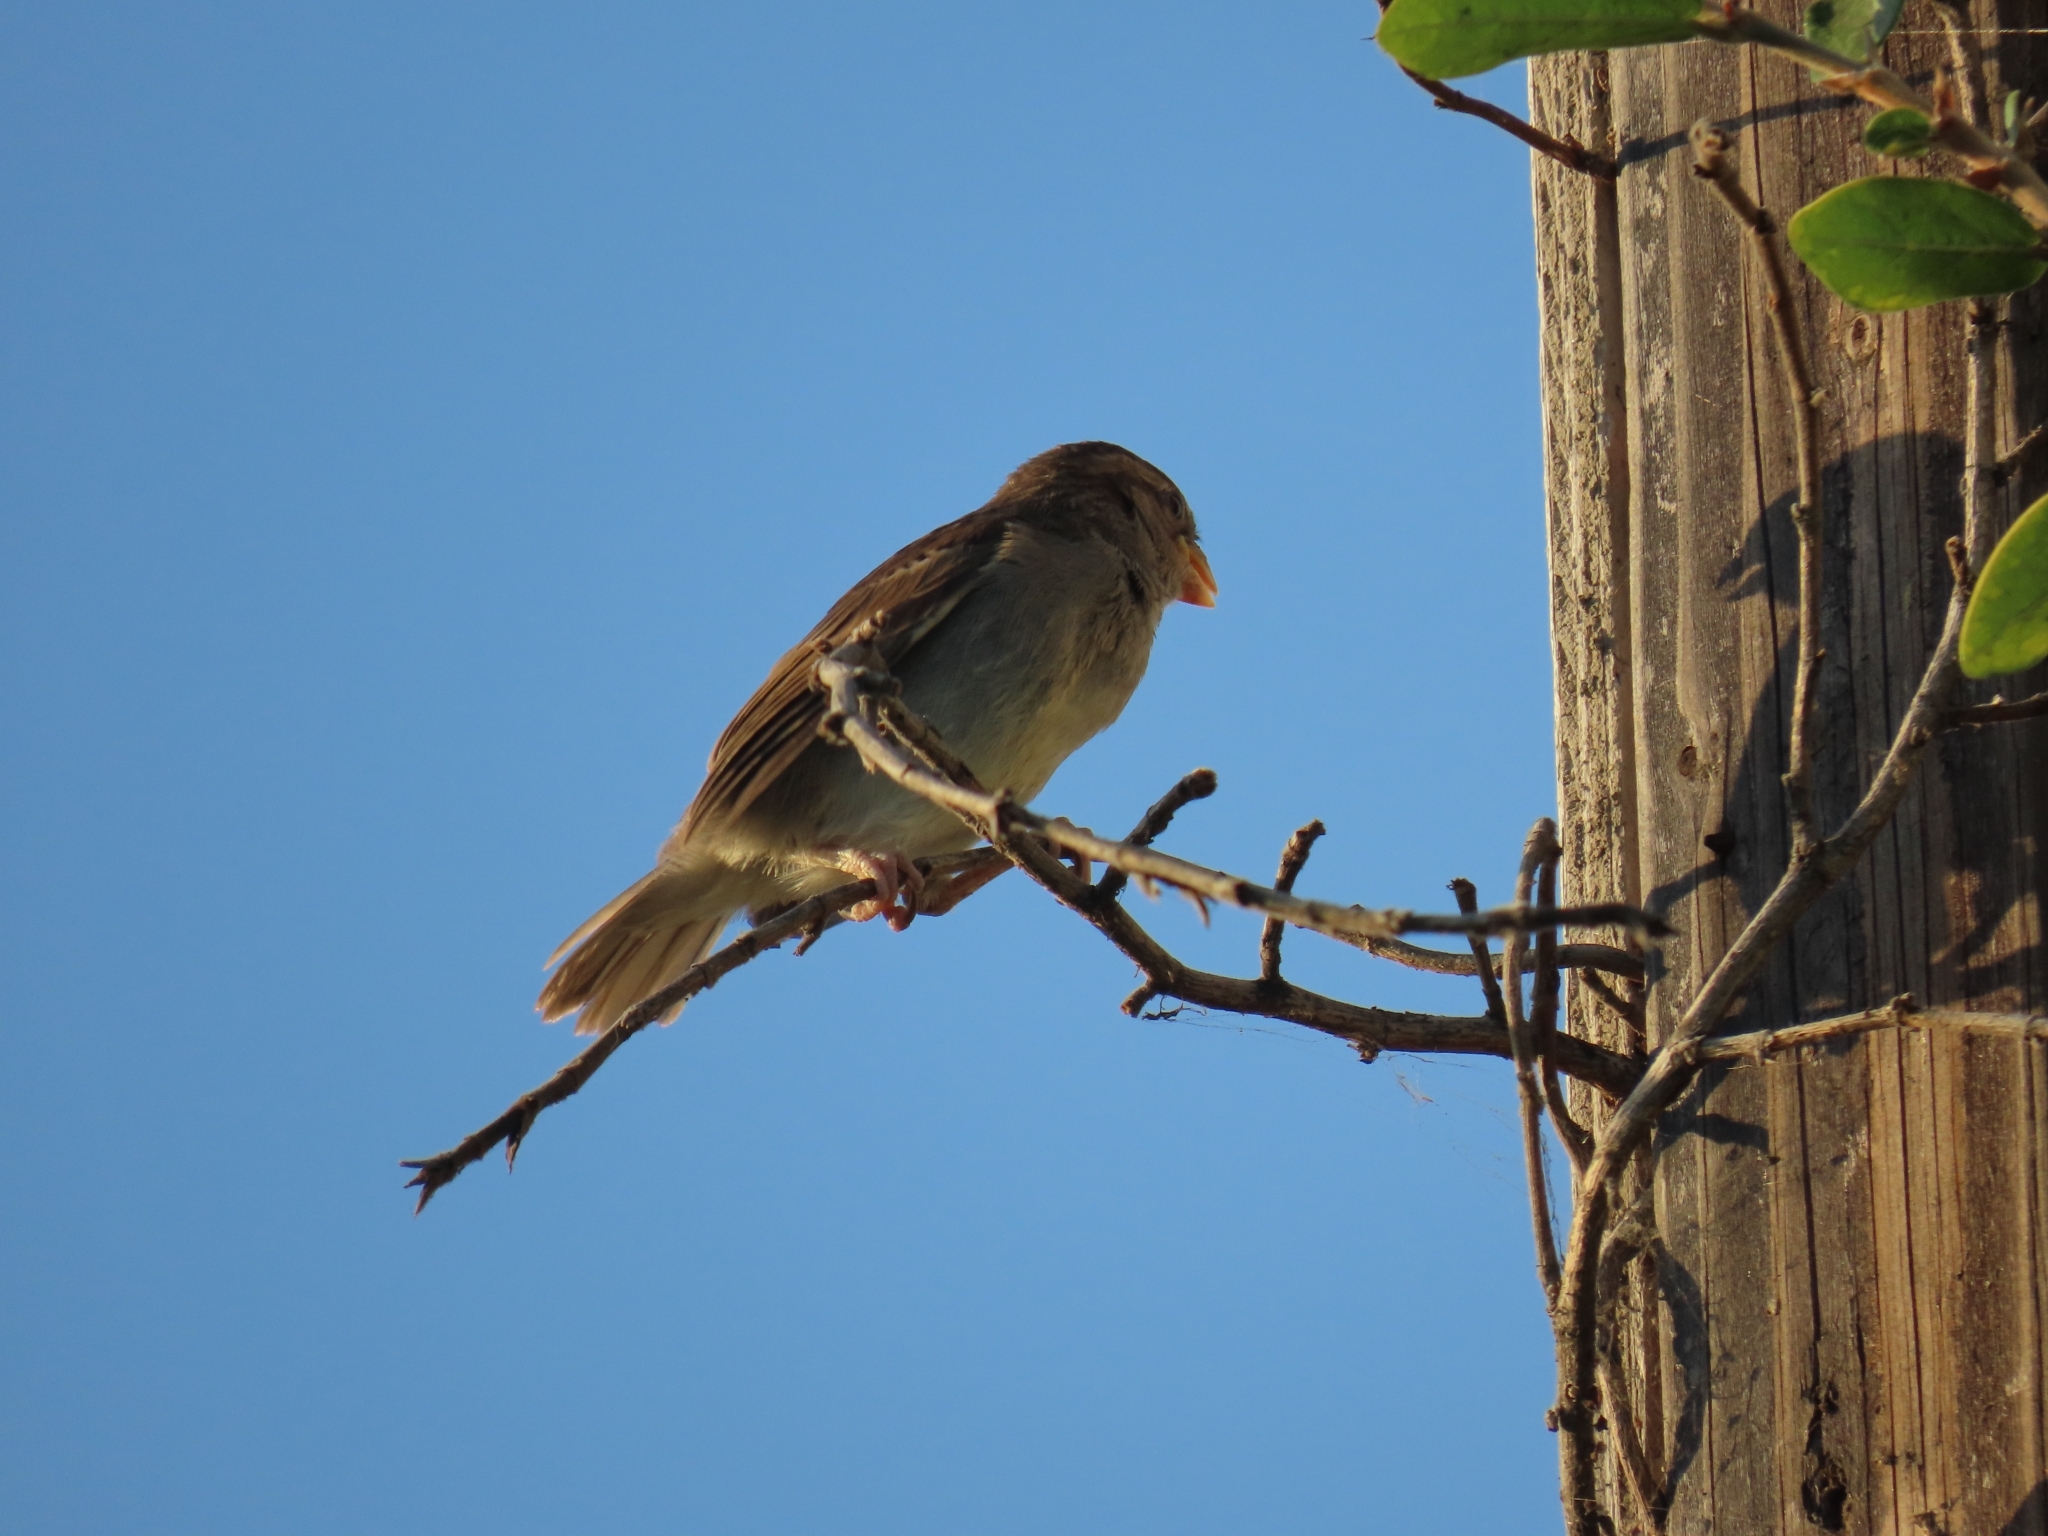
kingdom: Animalia
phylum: Chordata
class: Aves
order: Passeriformes
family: Passeridae
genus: Passer
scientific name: Passer domesticus
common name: House sparrow
